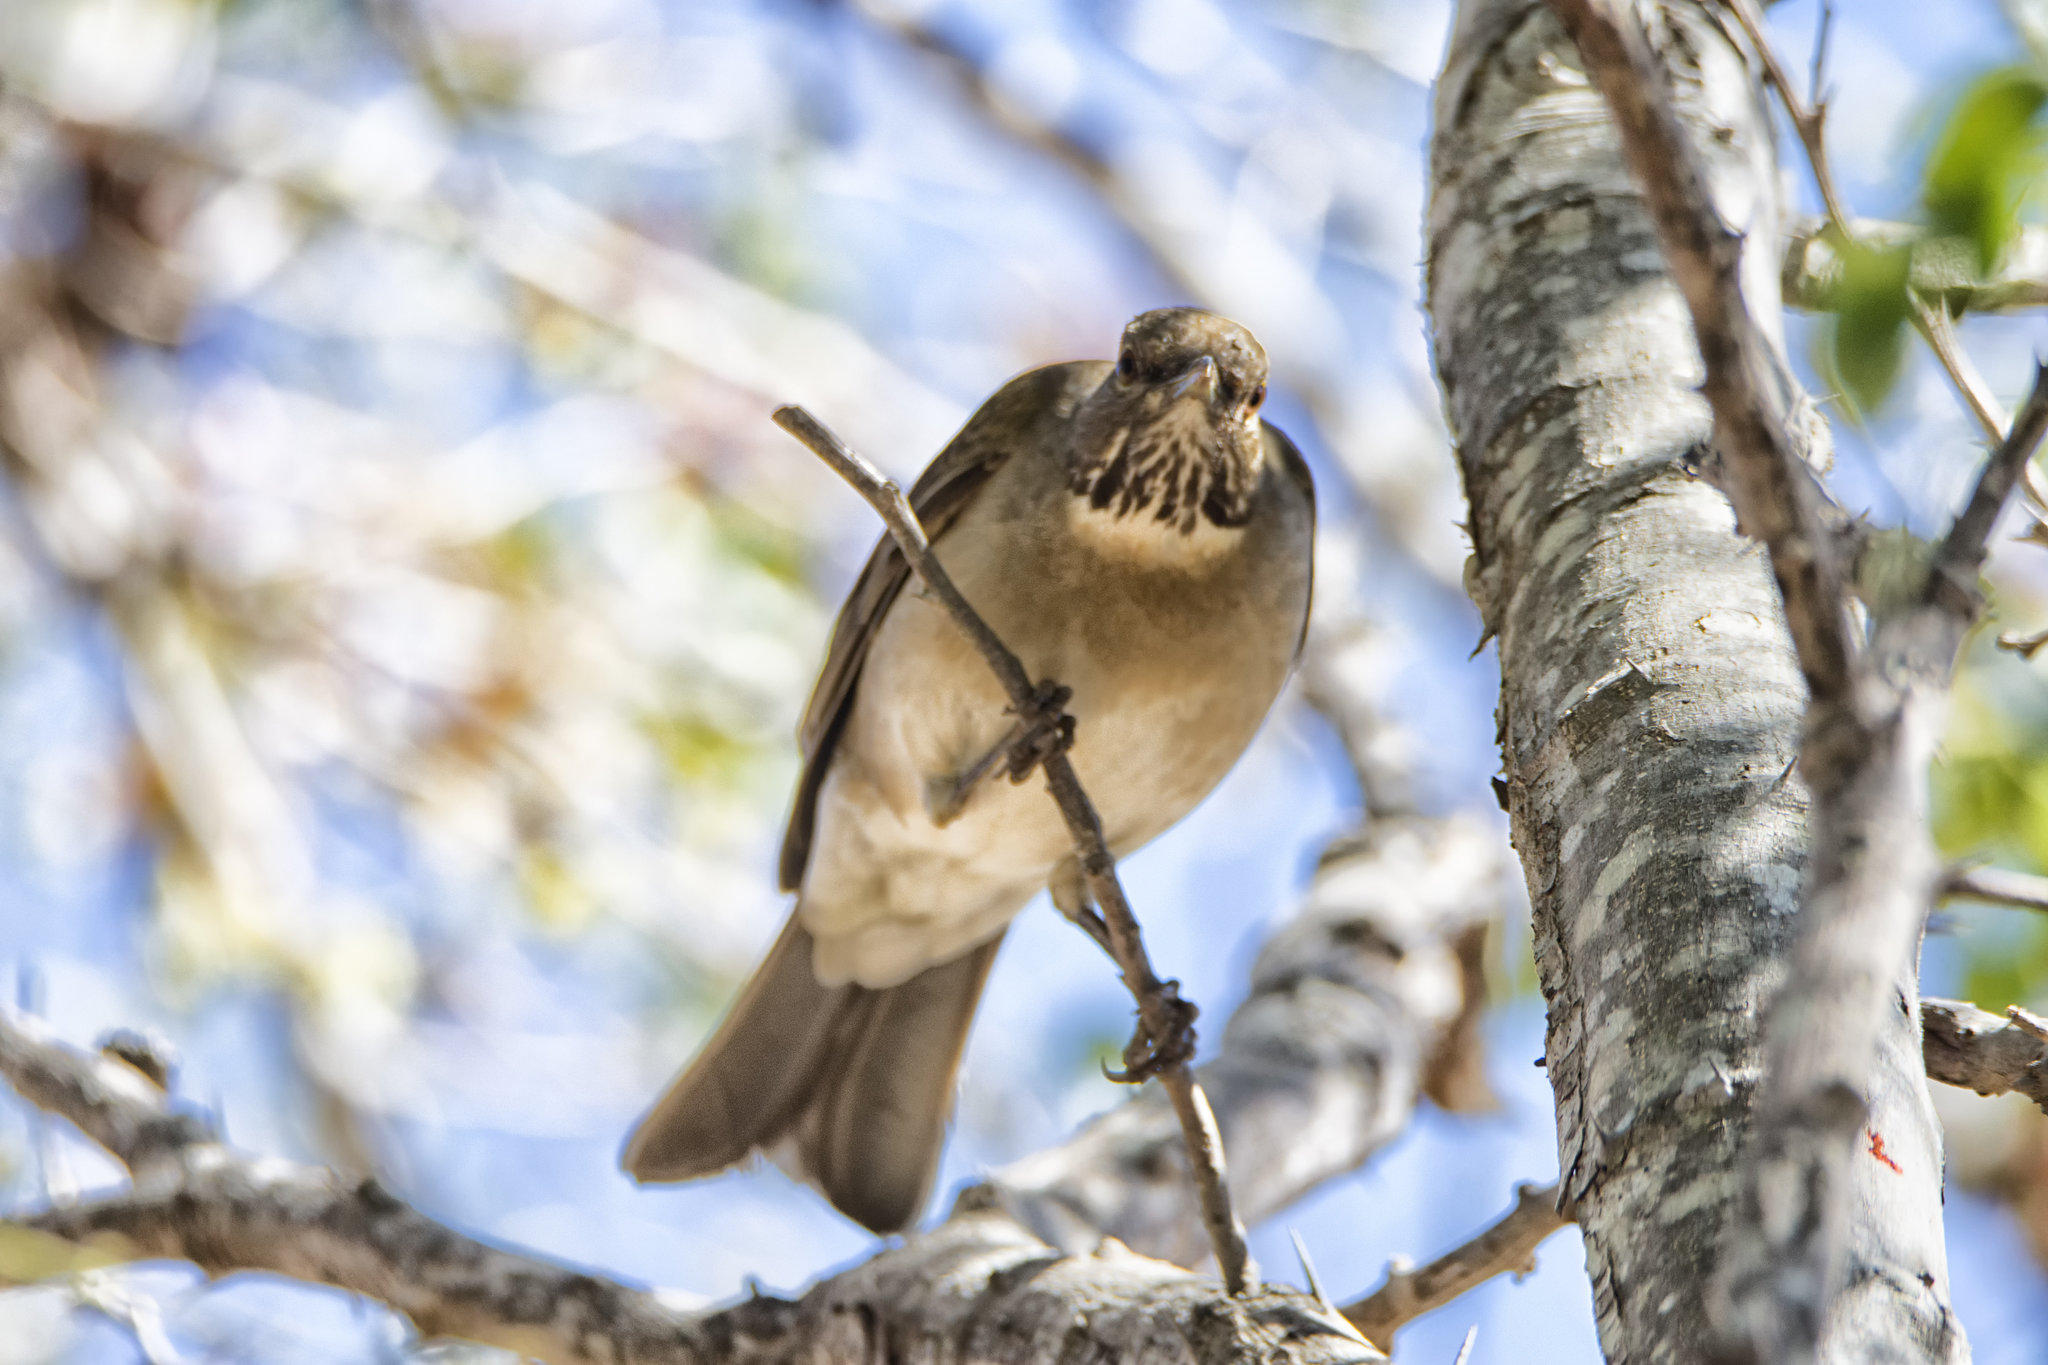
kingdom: Animalia
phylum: Chordata
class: Aves
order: Passeriformes
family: Turdidae
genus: Turdus
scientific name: Turdus assimilis
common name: White-throated thrush
